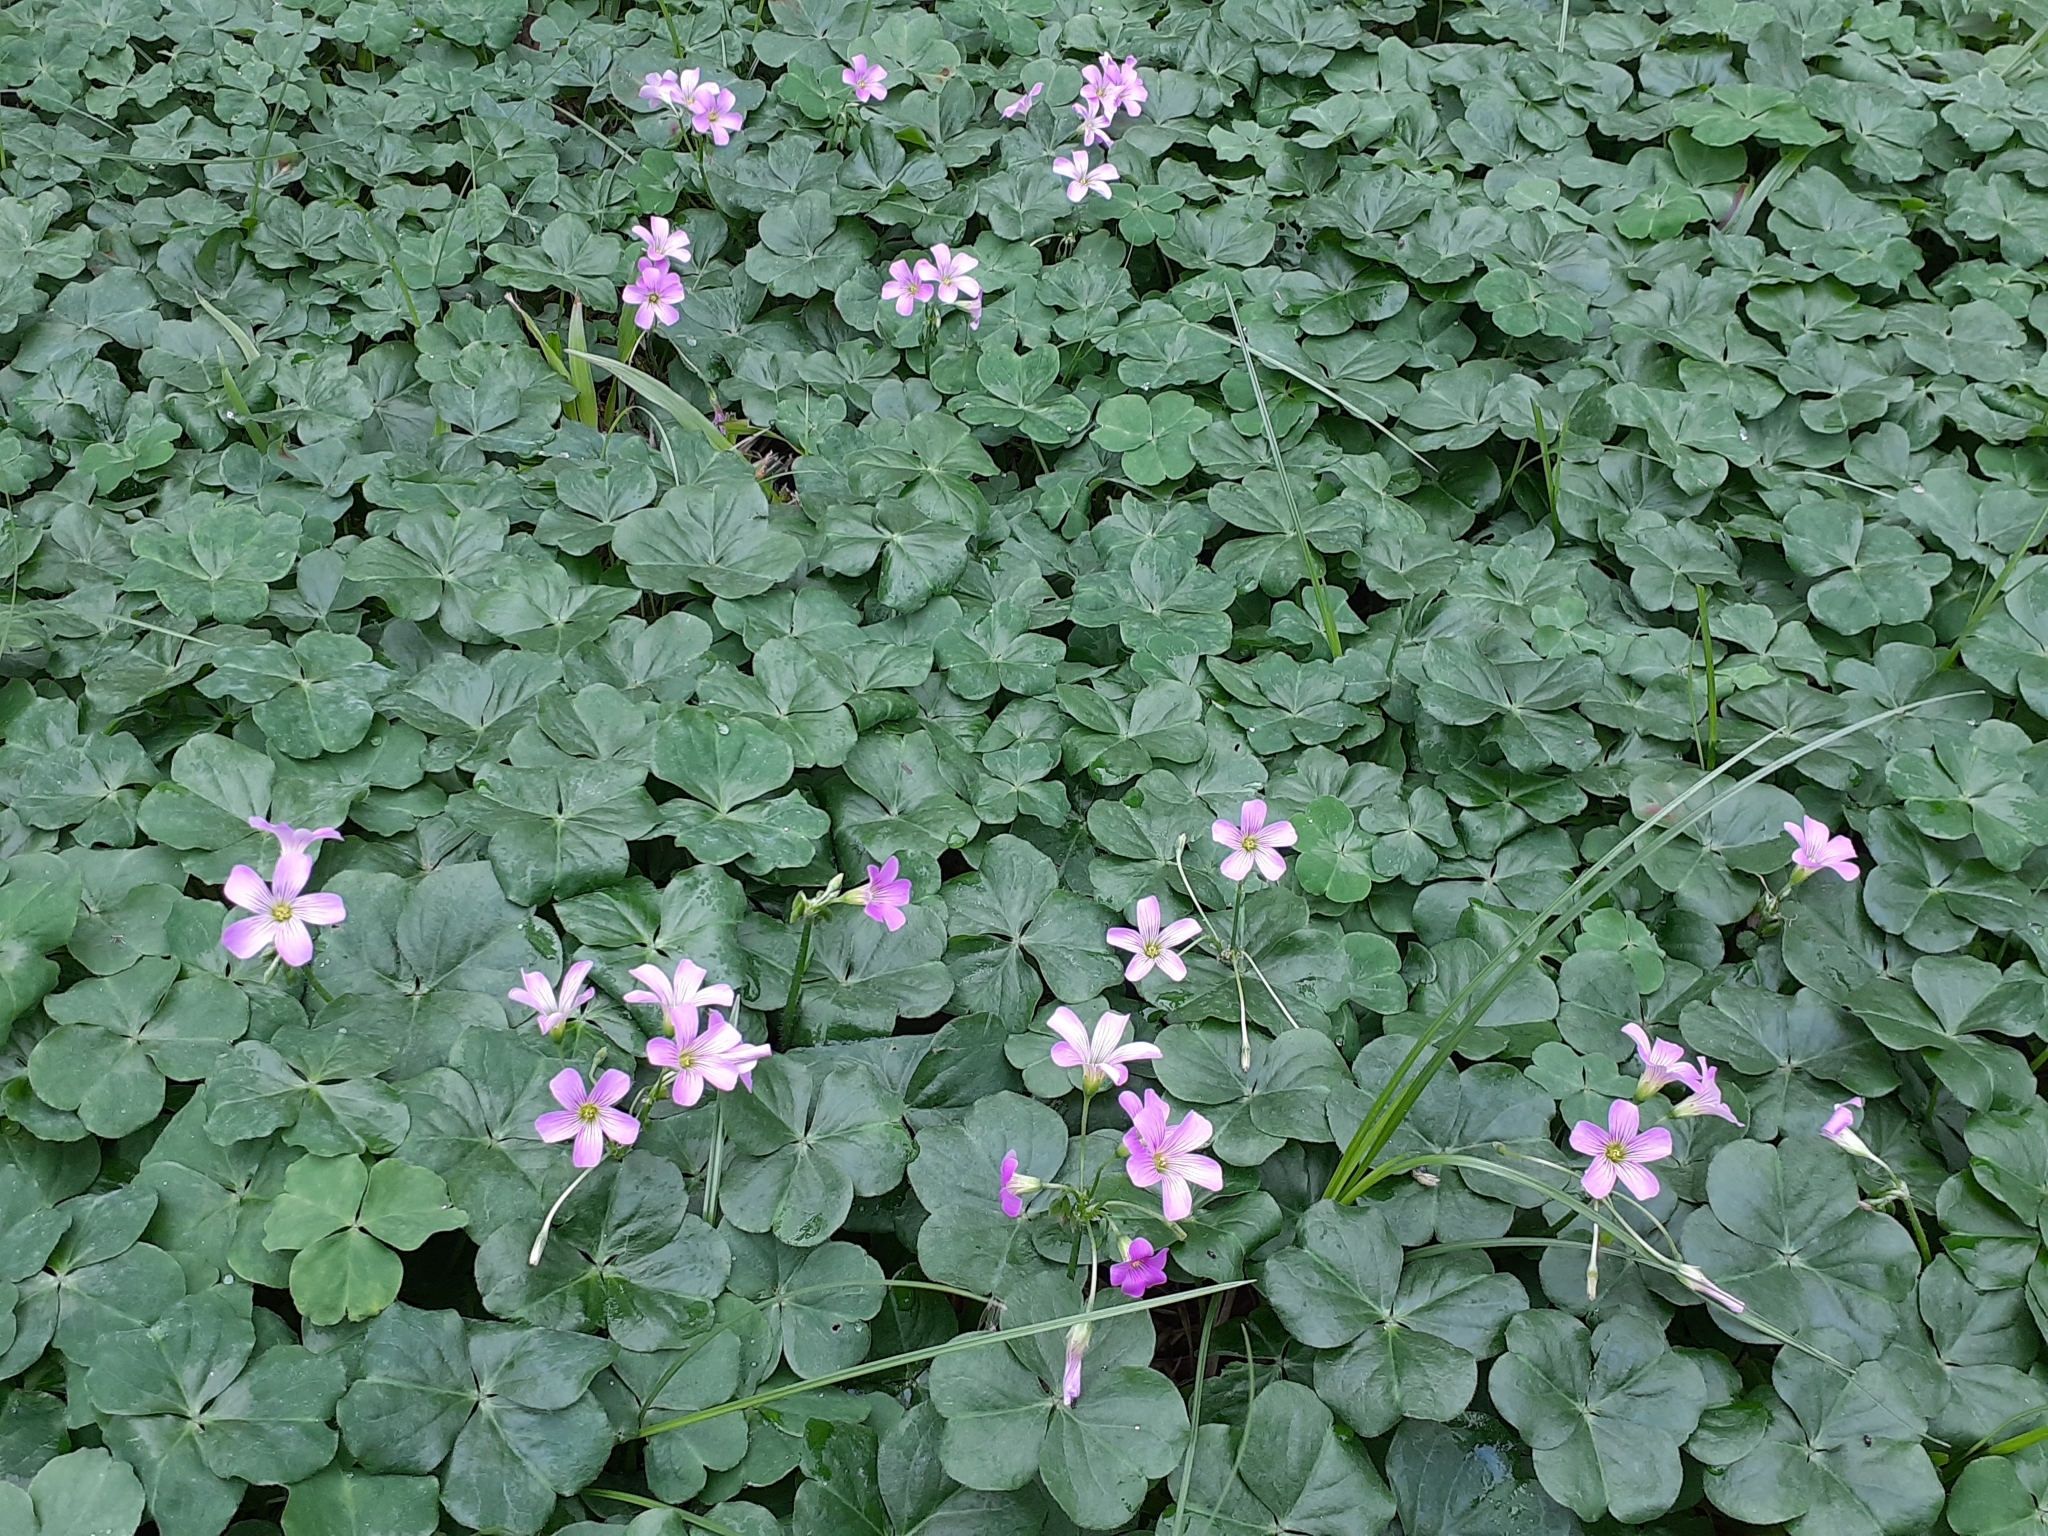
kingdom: Plantae
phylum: Tracheophyta
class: Magnoliopsida
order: Oxalidales
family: Oxalidaceae
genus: Oxalis
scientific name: Oxalis debilis
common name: Large-flowered pink-sorrel
